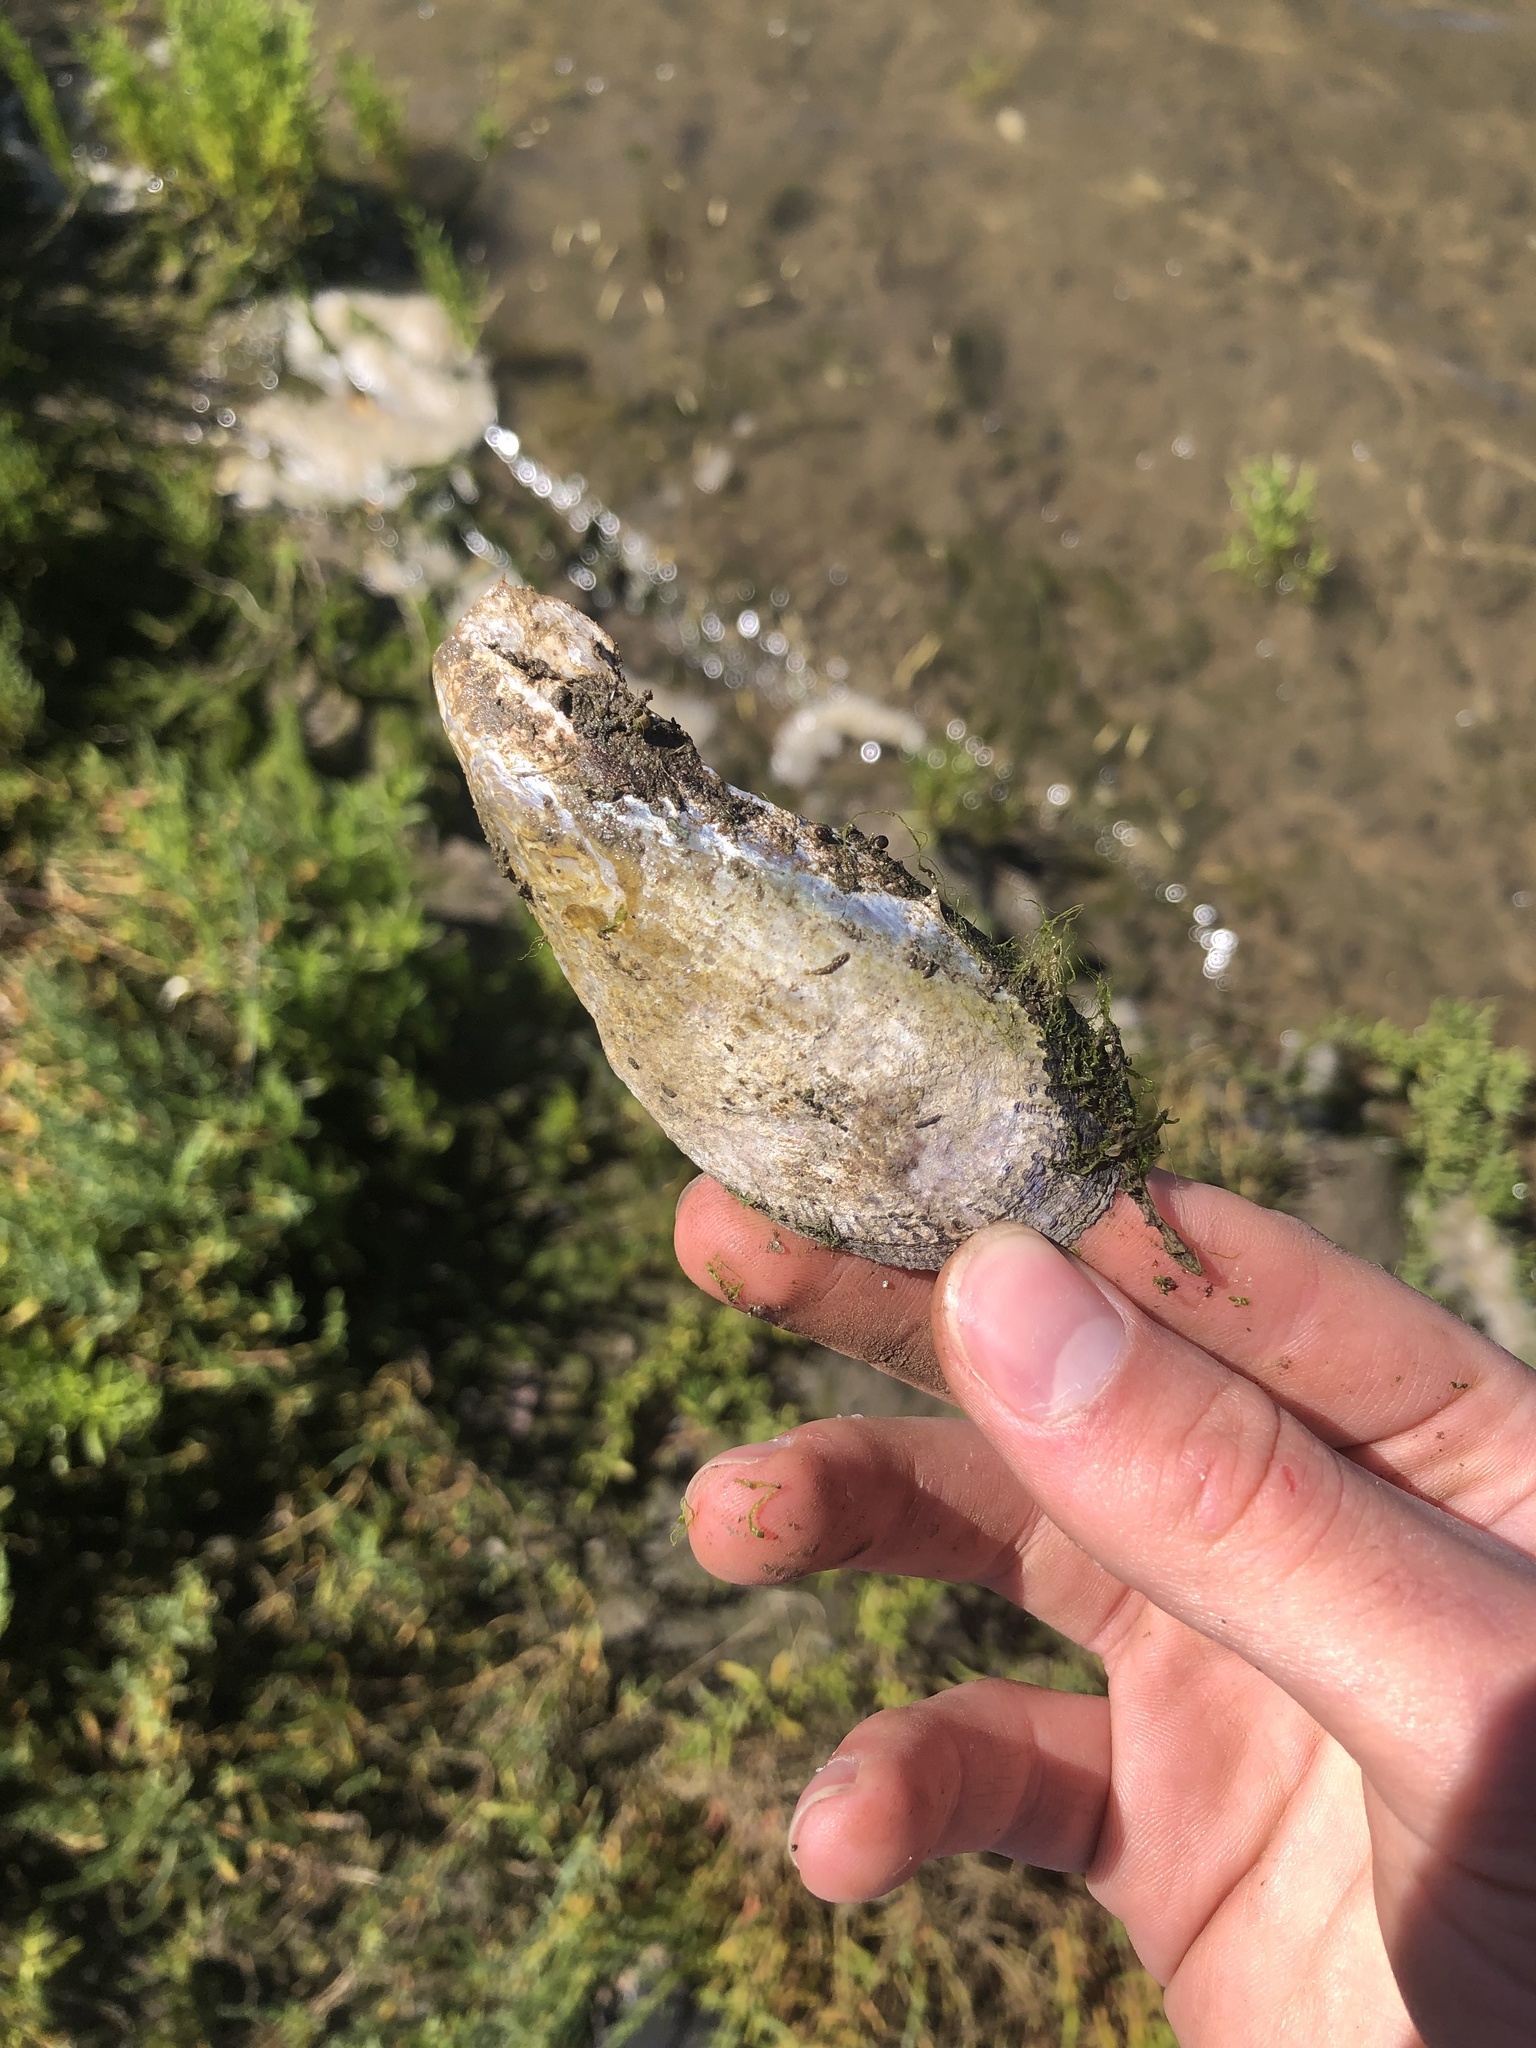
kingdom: Animalia
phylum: Mollusca
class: Bivalvia
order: Mytilida
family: Mytilidae
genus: Geukensia
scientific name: Geukensia demissa
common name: Ribbed mussel
